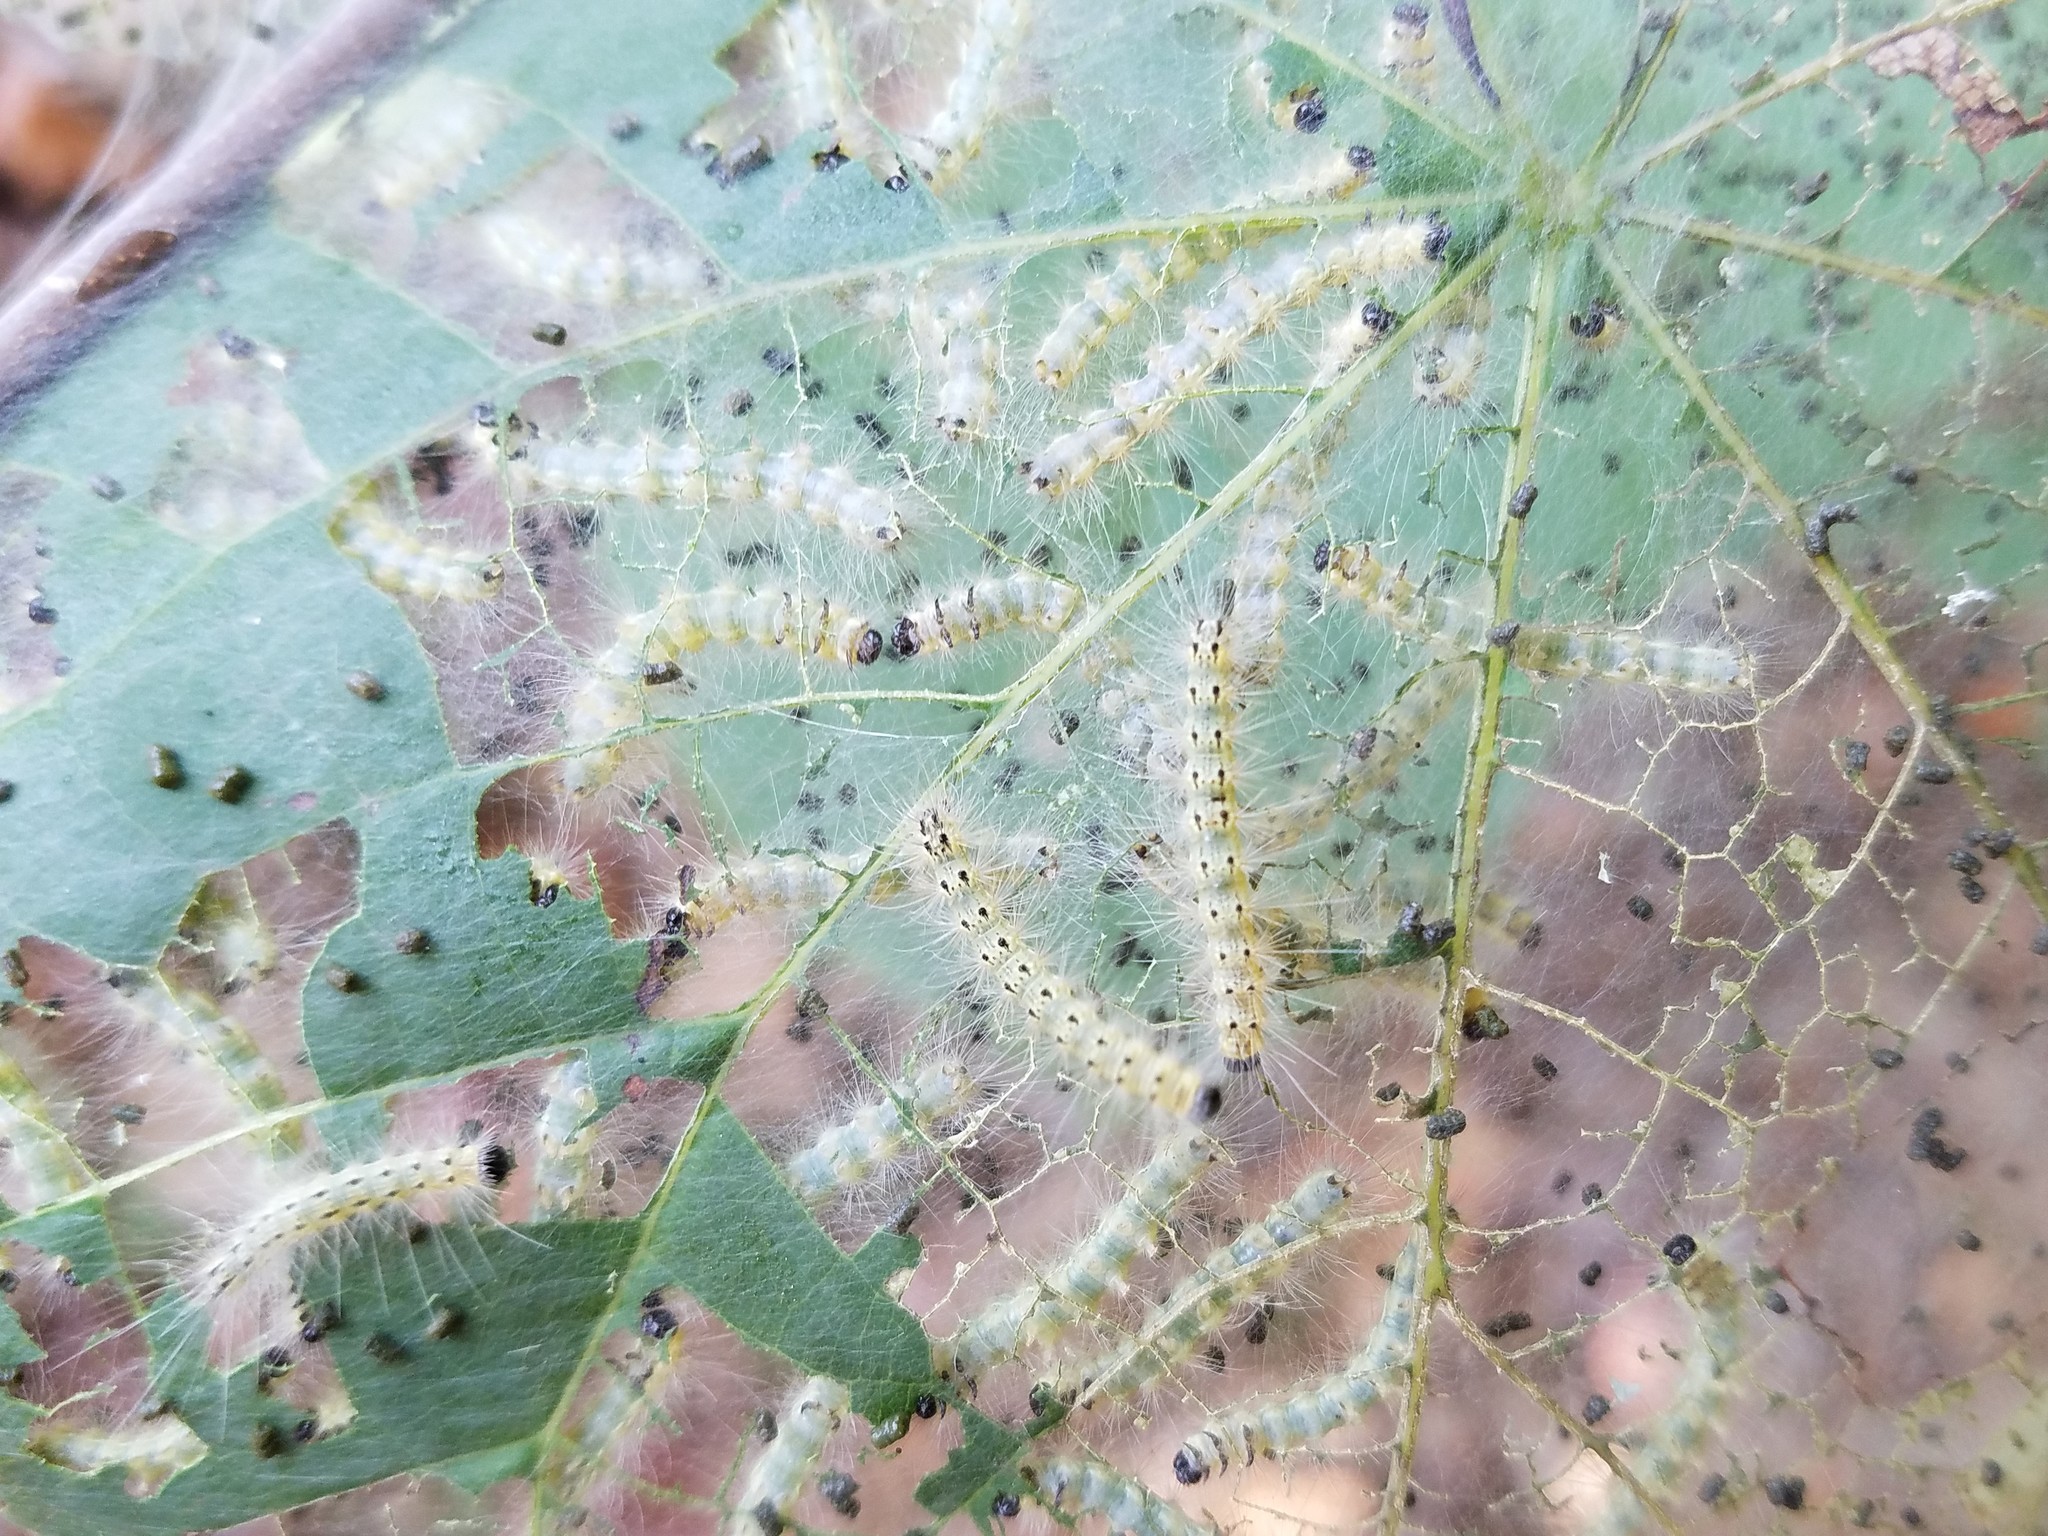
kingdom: Animalia
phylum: Arthropoda
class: Insecta
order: Lepidoptera
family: Erebidae
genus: Hyphantria
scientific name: Hyphantria cunea
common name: American white moth
